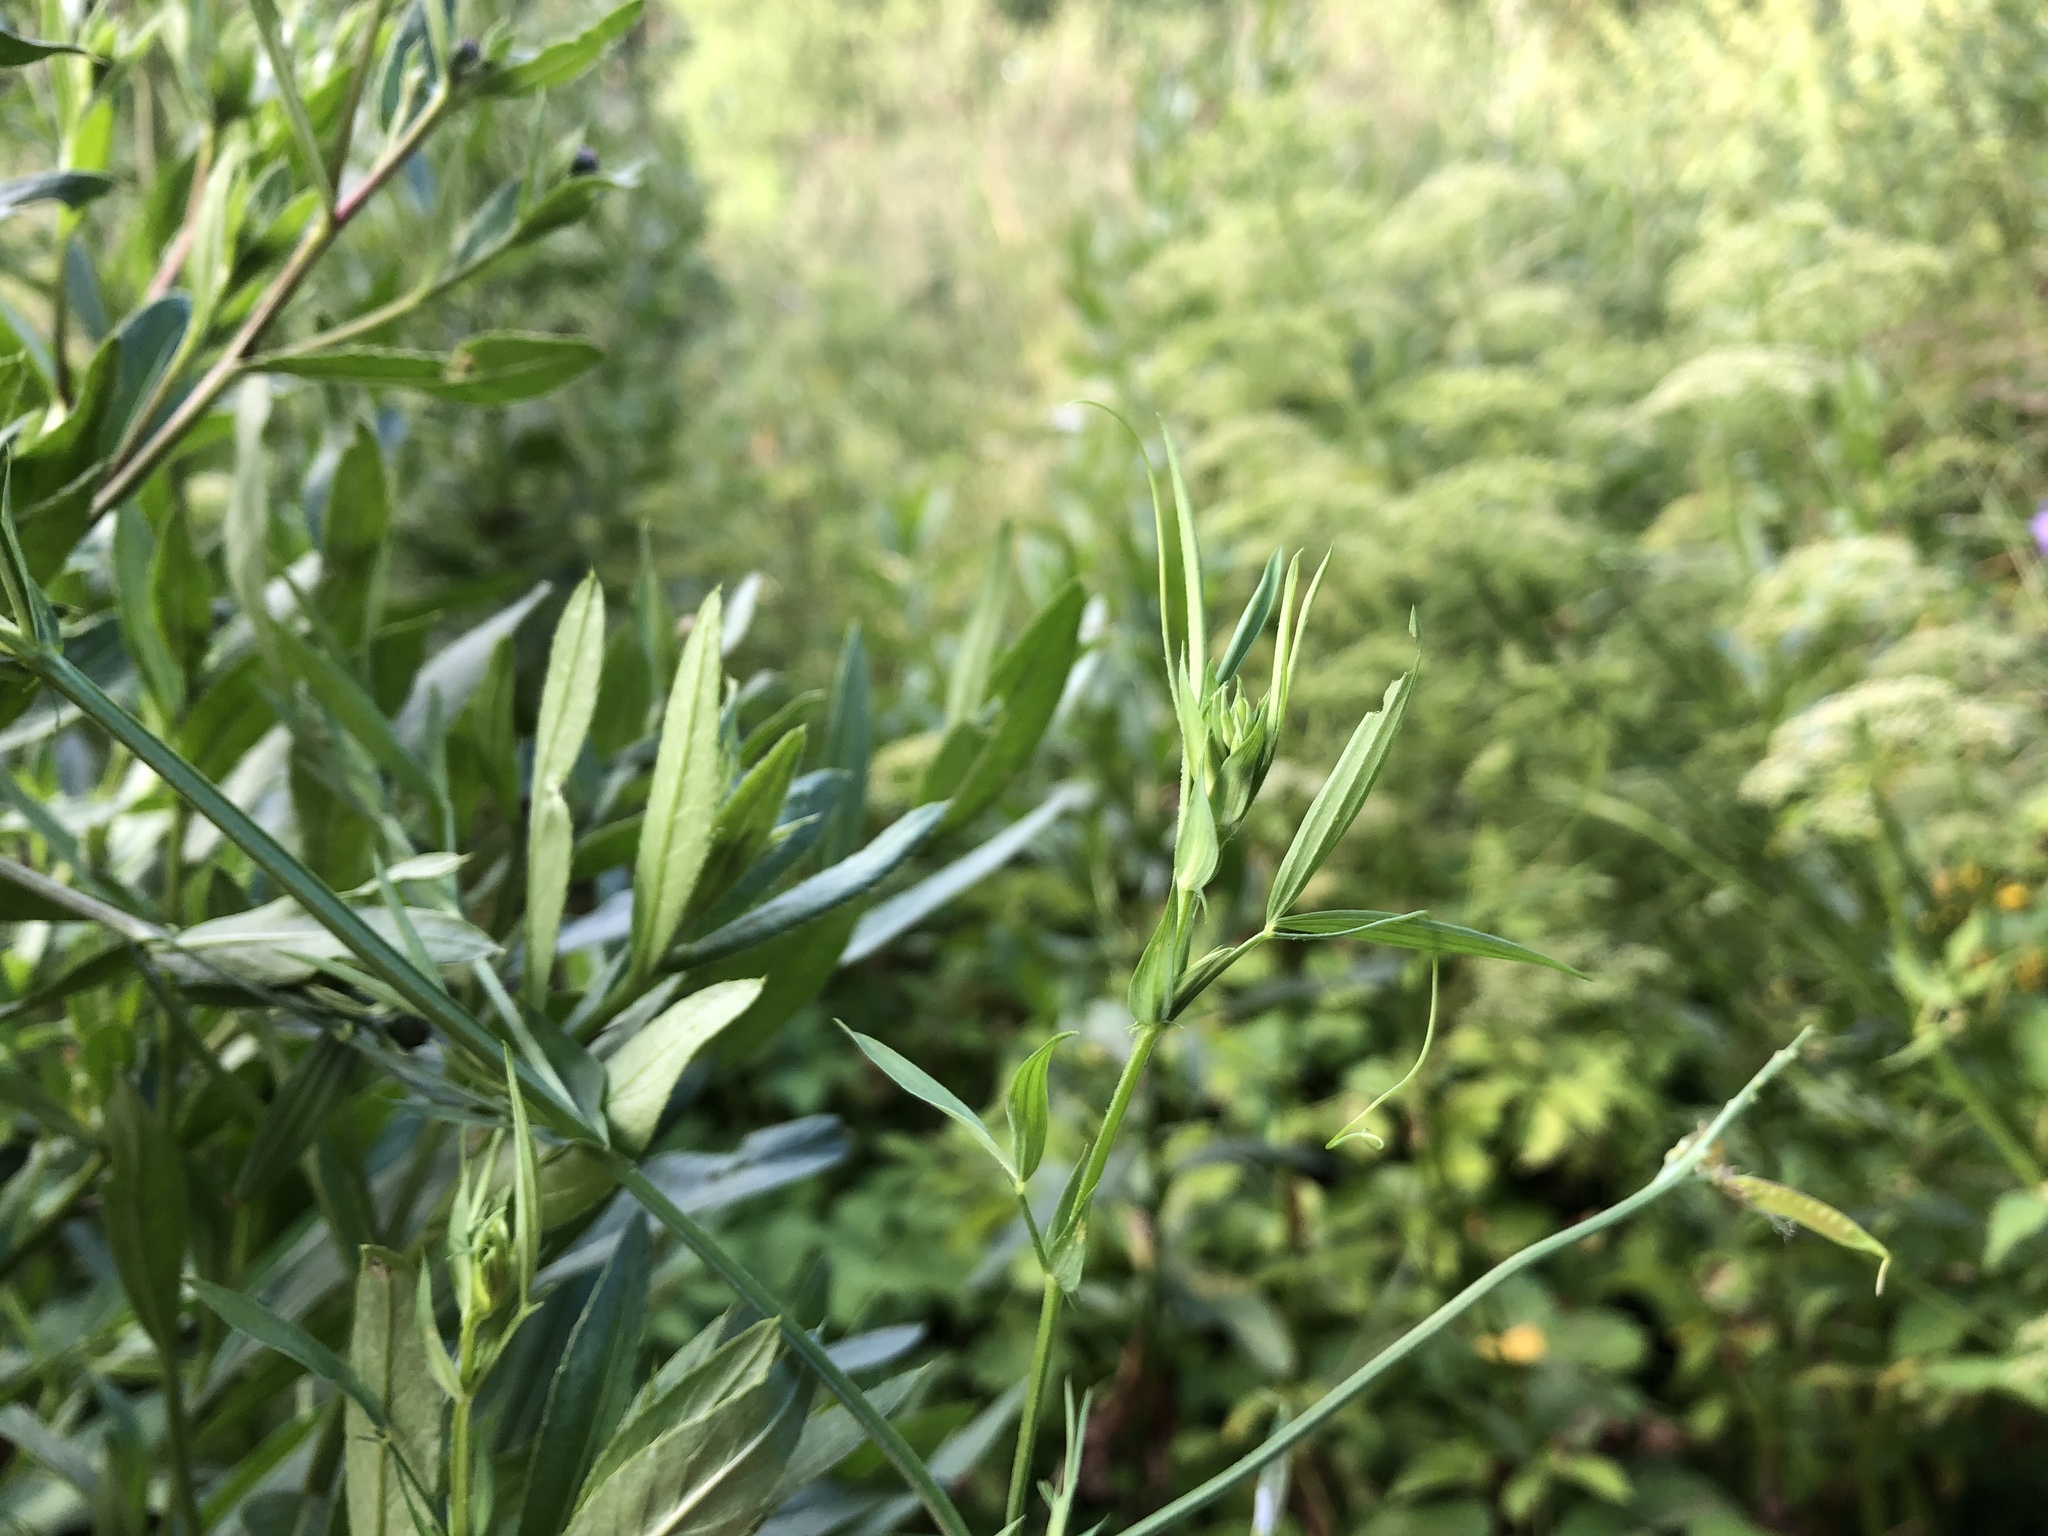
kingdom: Plantae
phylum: Tracheophyta
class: Magnoliopsida
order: Fabales
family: Fabaceae
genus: Lathyrus
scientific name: Lathyrus pratensis
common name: Meadow vetchling
